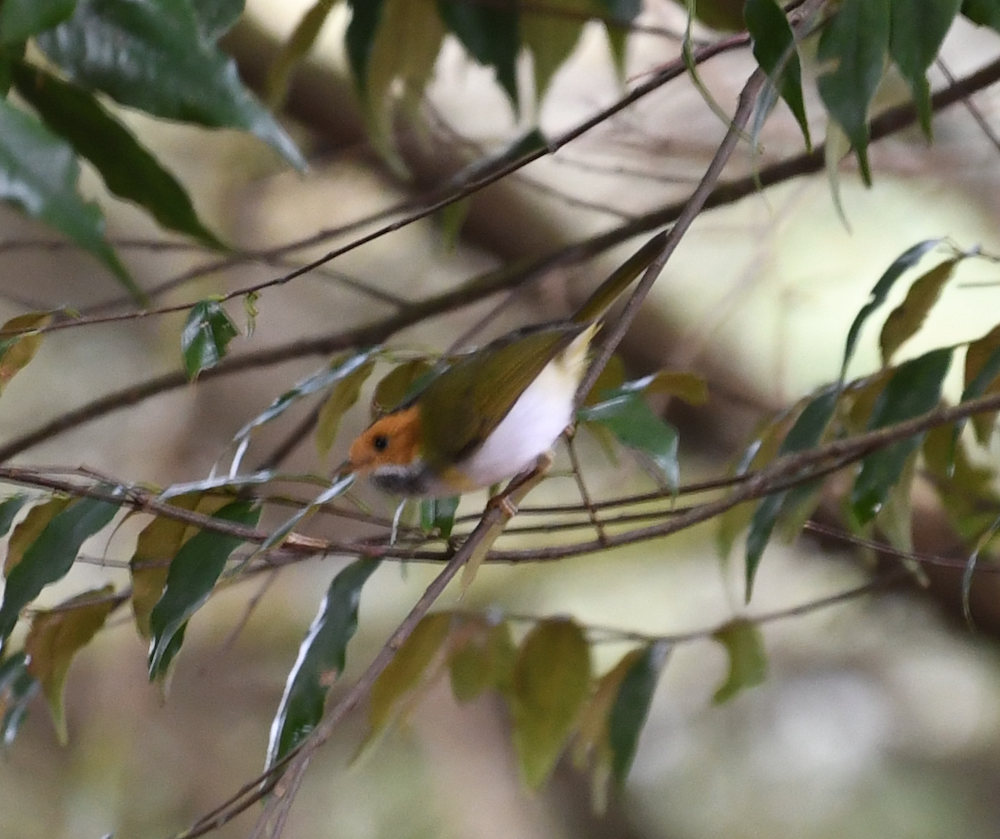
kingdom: Animalia
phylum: Chordata
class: Aves
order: Passeriformes
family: Cettiidae
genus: Abroscopus
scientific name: Abroscopus albogularis
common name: Rufous-faced warbler
